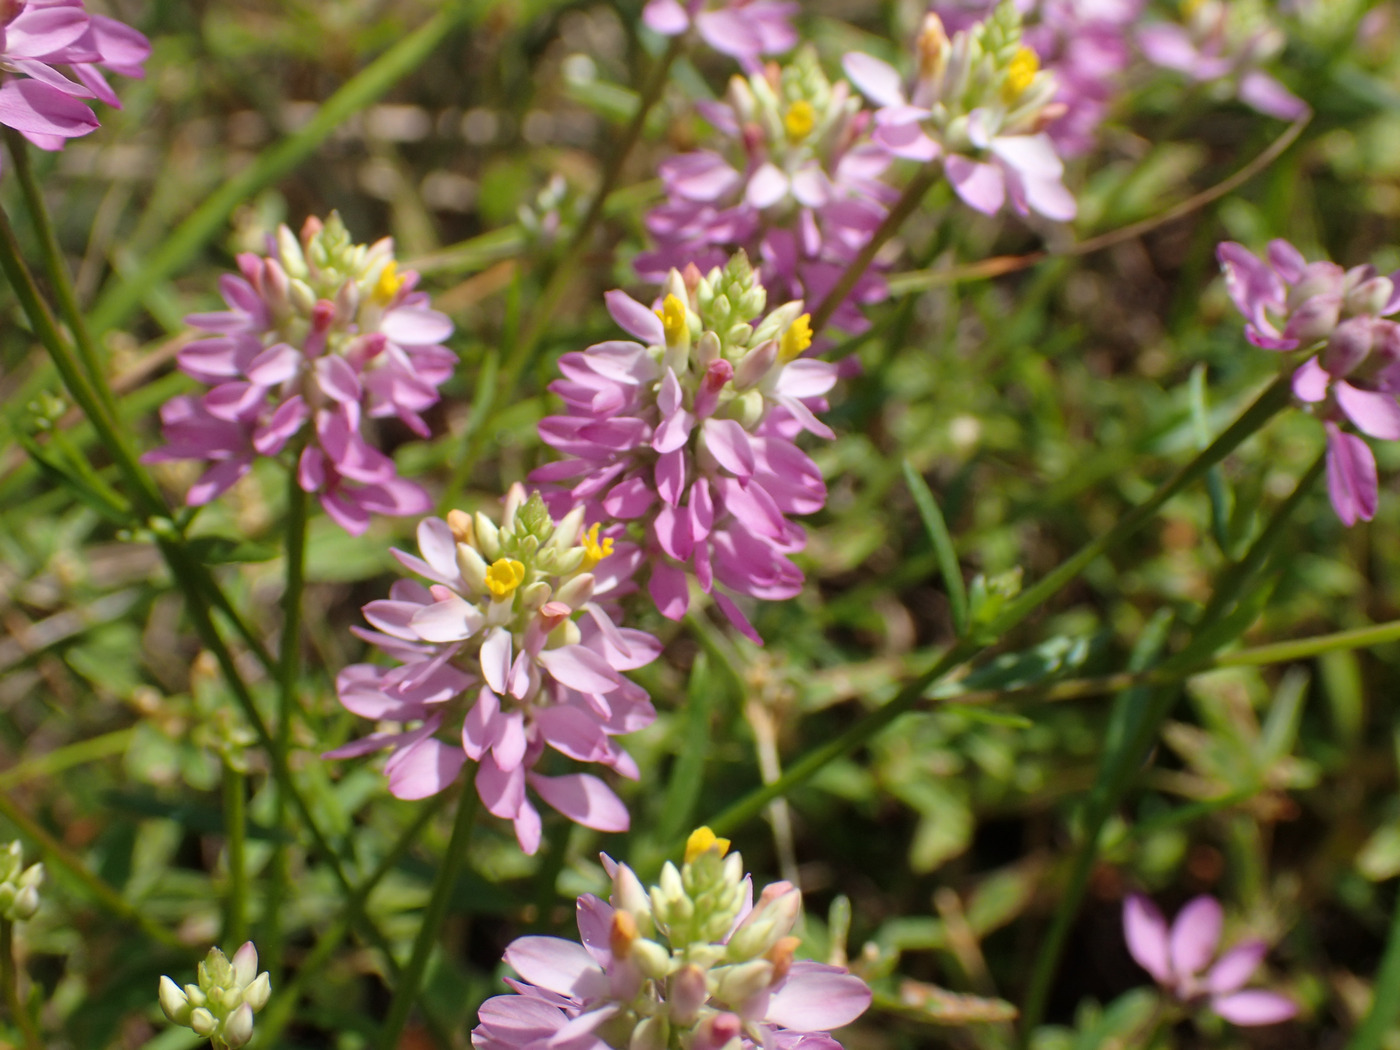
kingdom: Plantae
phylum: Tracheophyta
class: Magnoliopsida
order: Fabales
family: Polygalaceae
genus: Polygala
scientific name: Polygala curtissii
